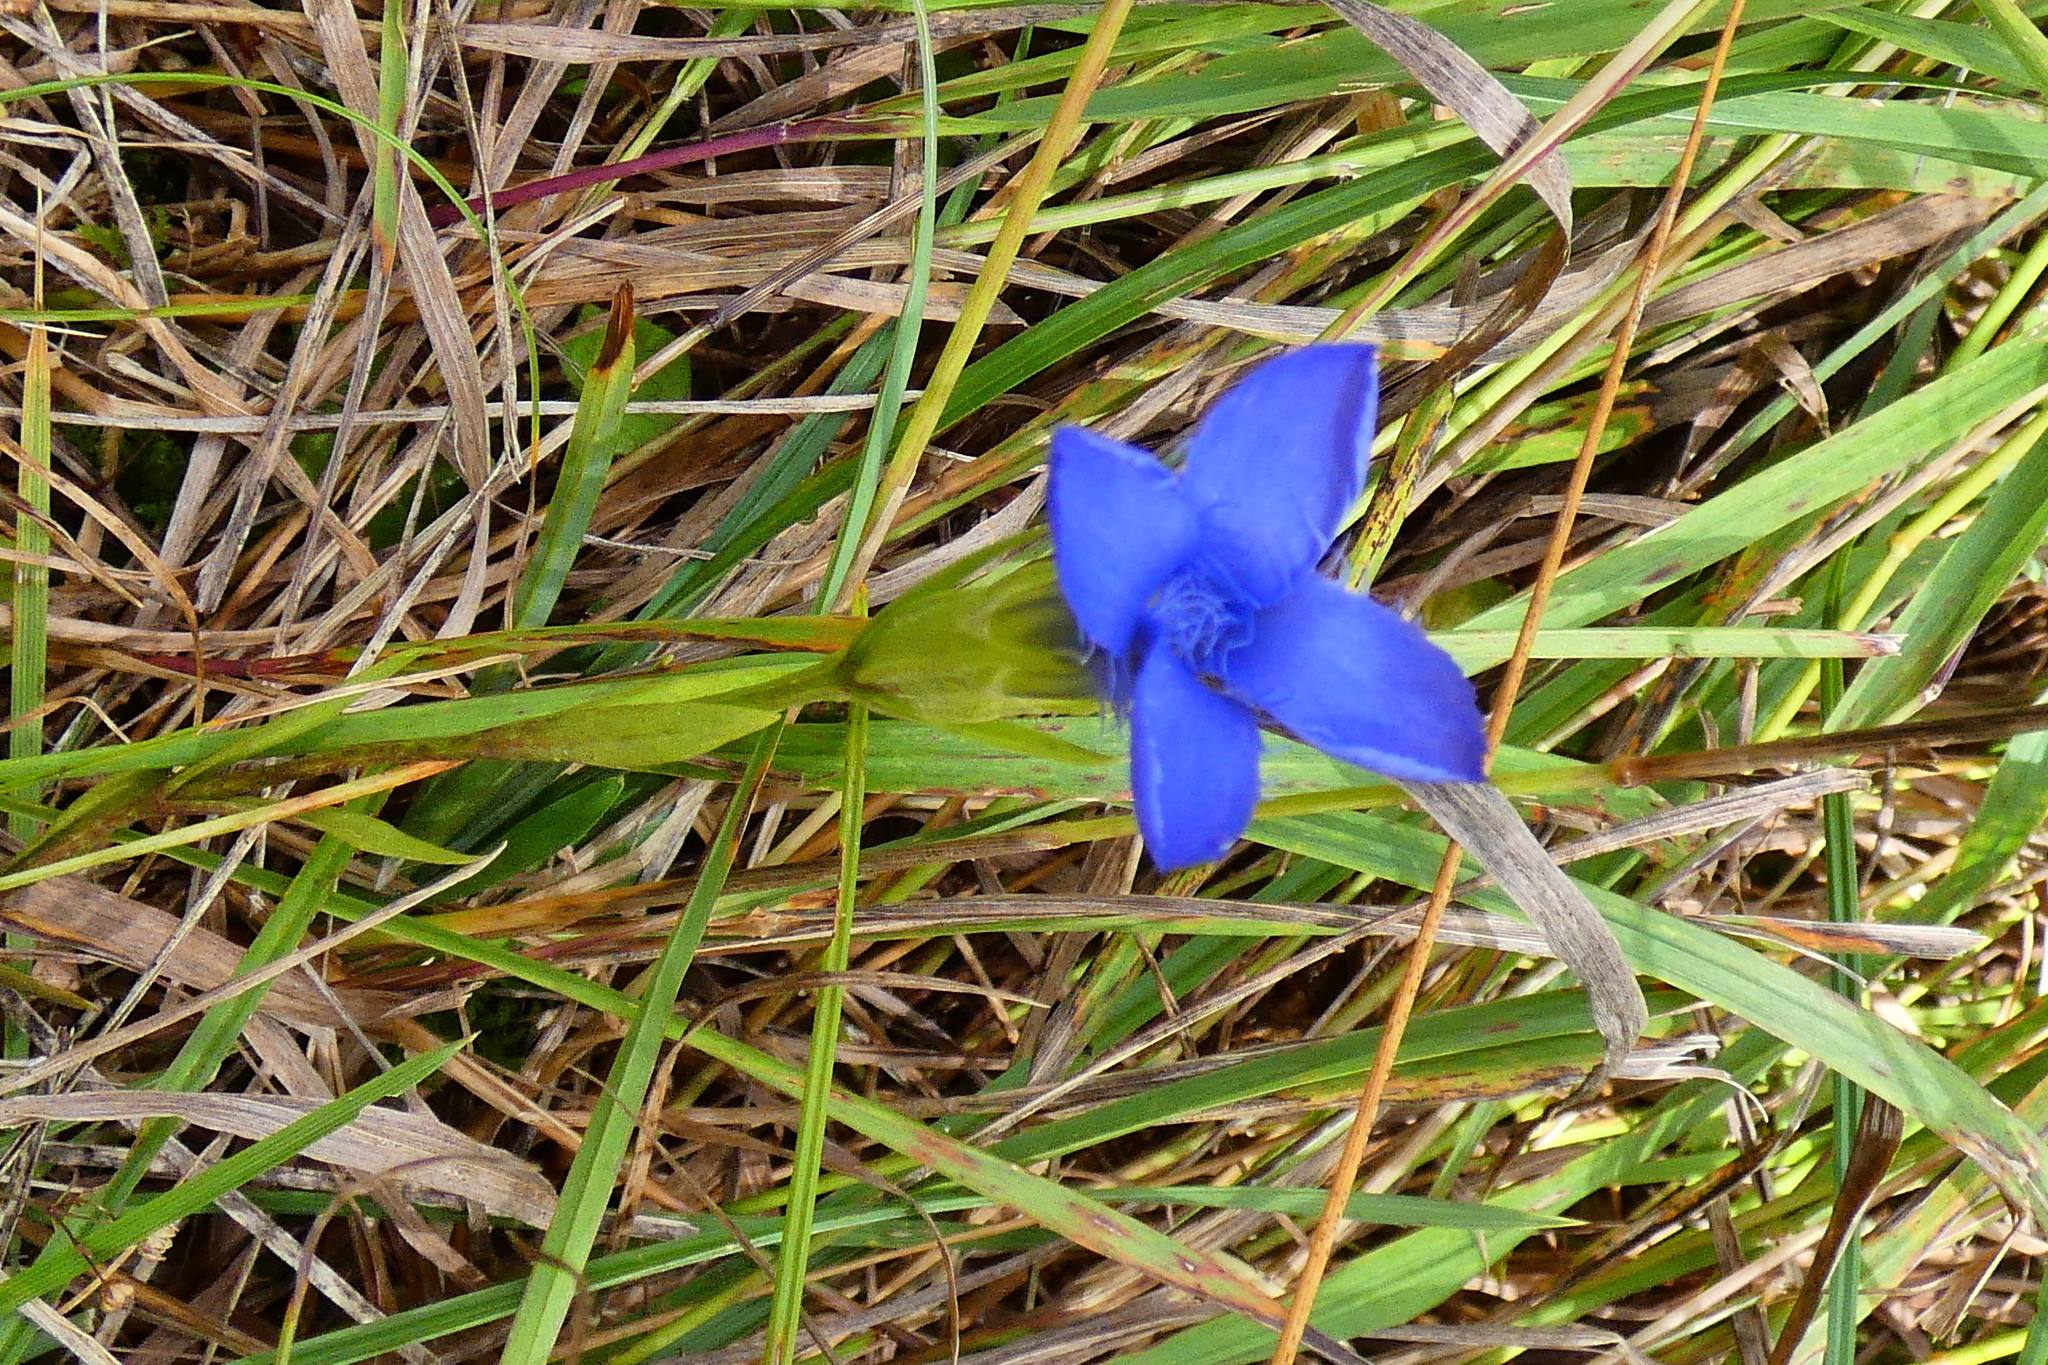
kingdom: Plantae
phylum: Tracheophyta
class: Magnoliopsida
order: Gentianales
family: Gentianaceae
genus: Gentianopsis
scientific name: Gentianopsis ciliata
